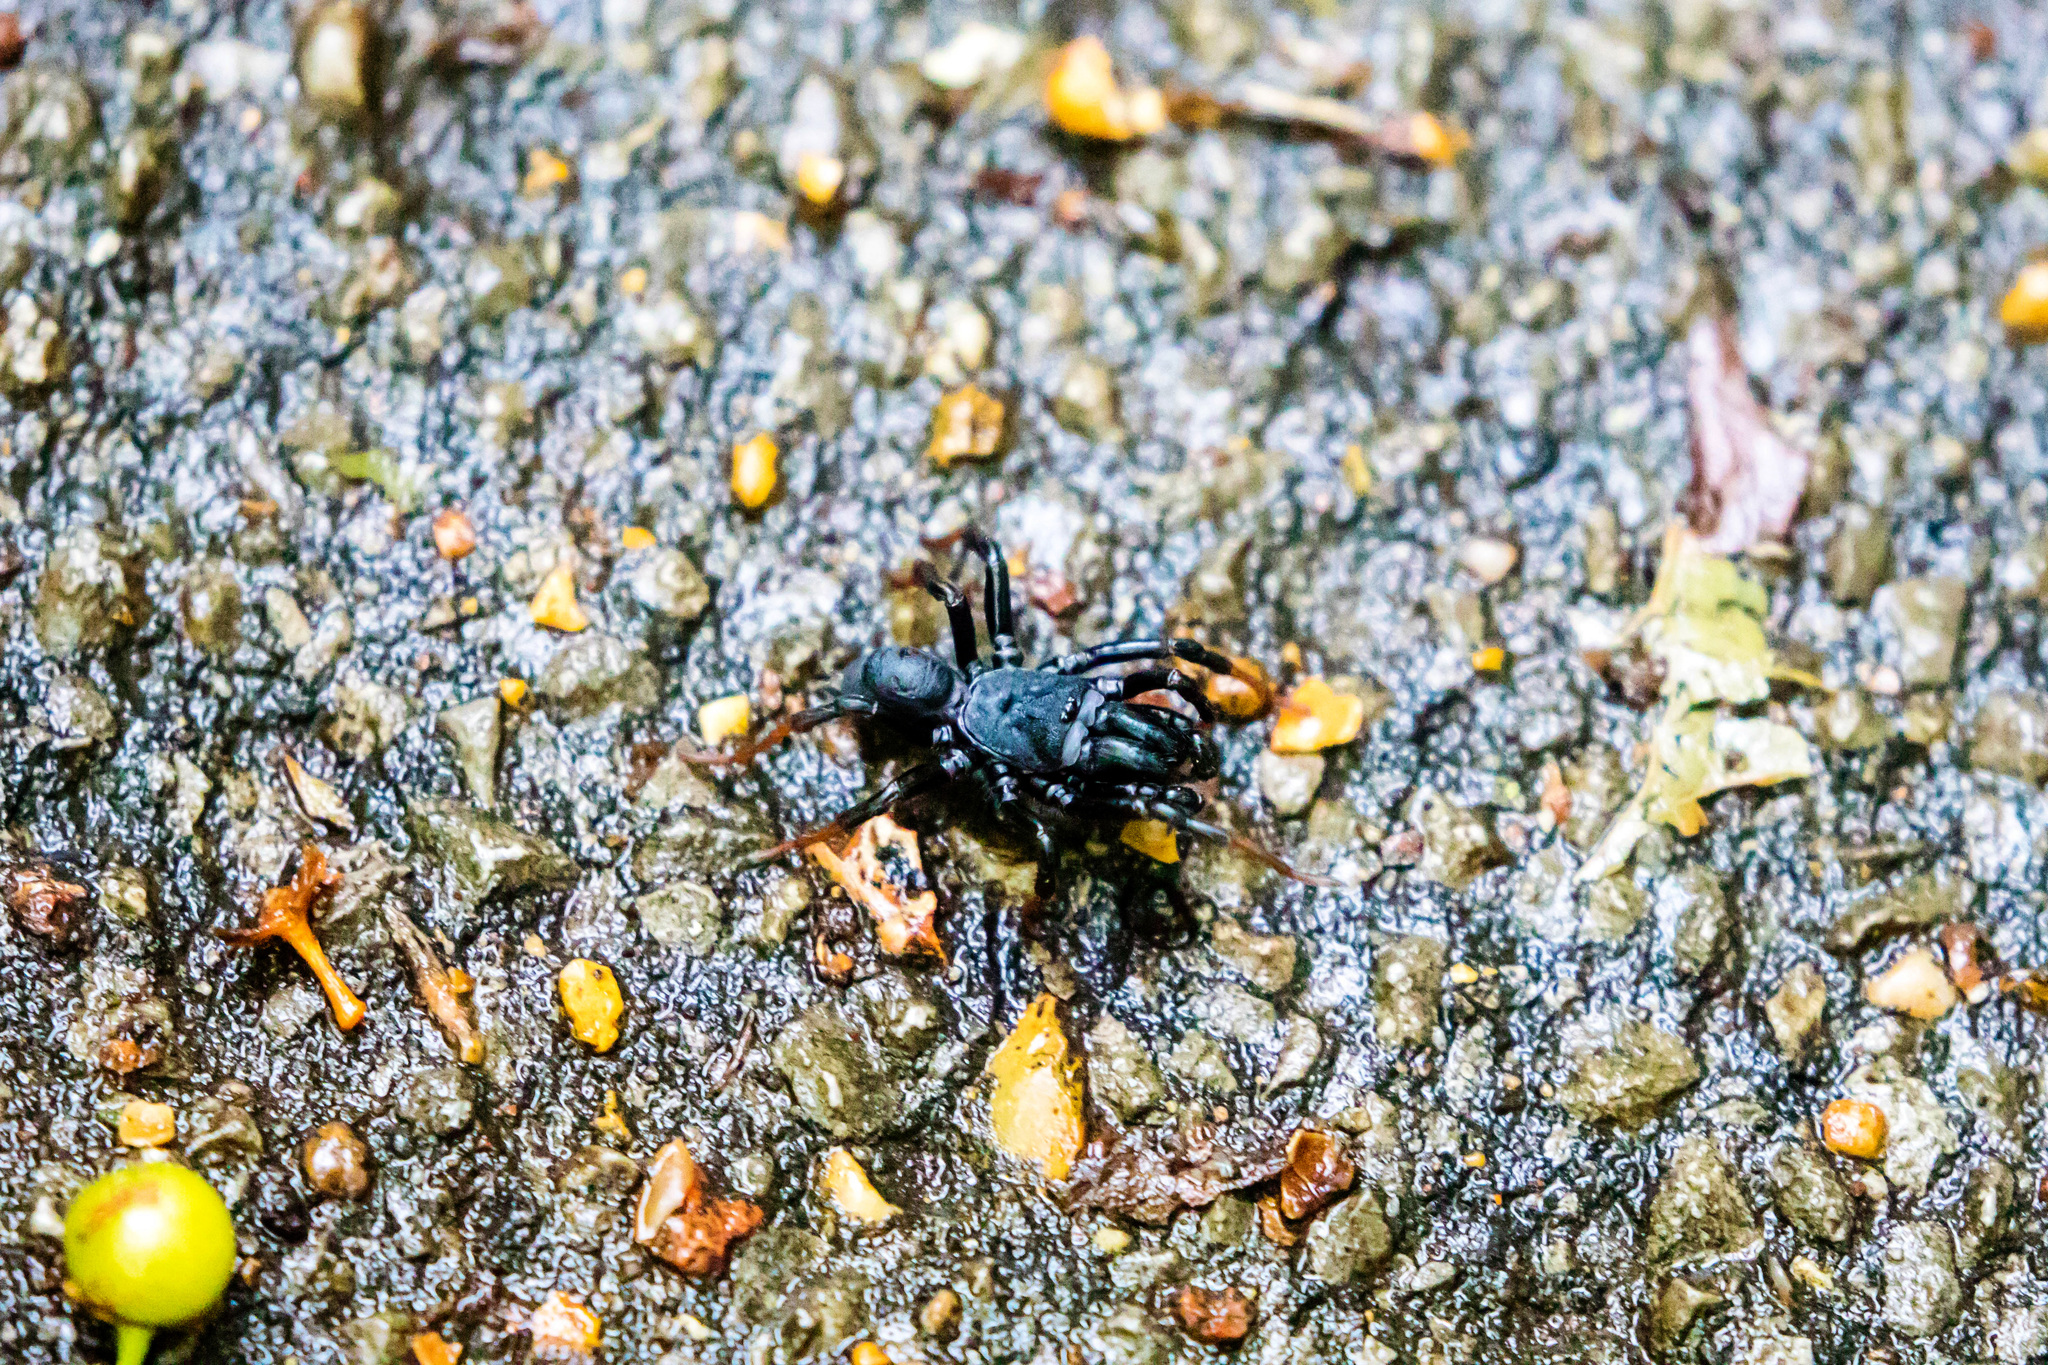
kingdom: Animalia
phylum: Arthropoda
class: Arachnida
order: Araneae
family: Atypidae
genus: Sphodros
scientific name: Sphodros atlanticus
